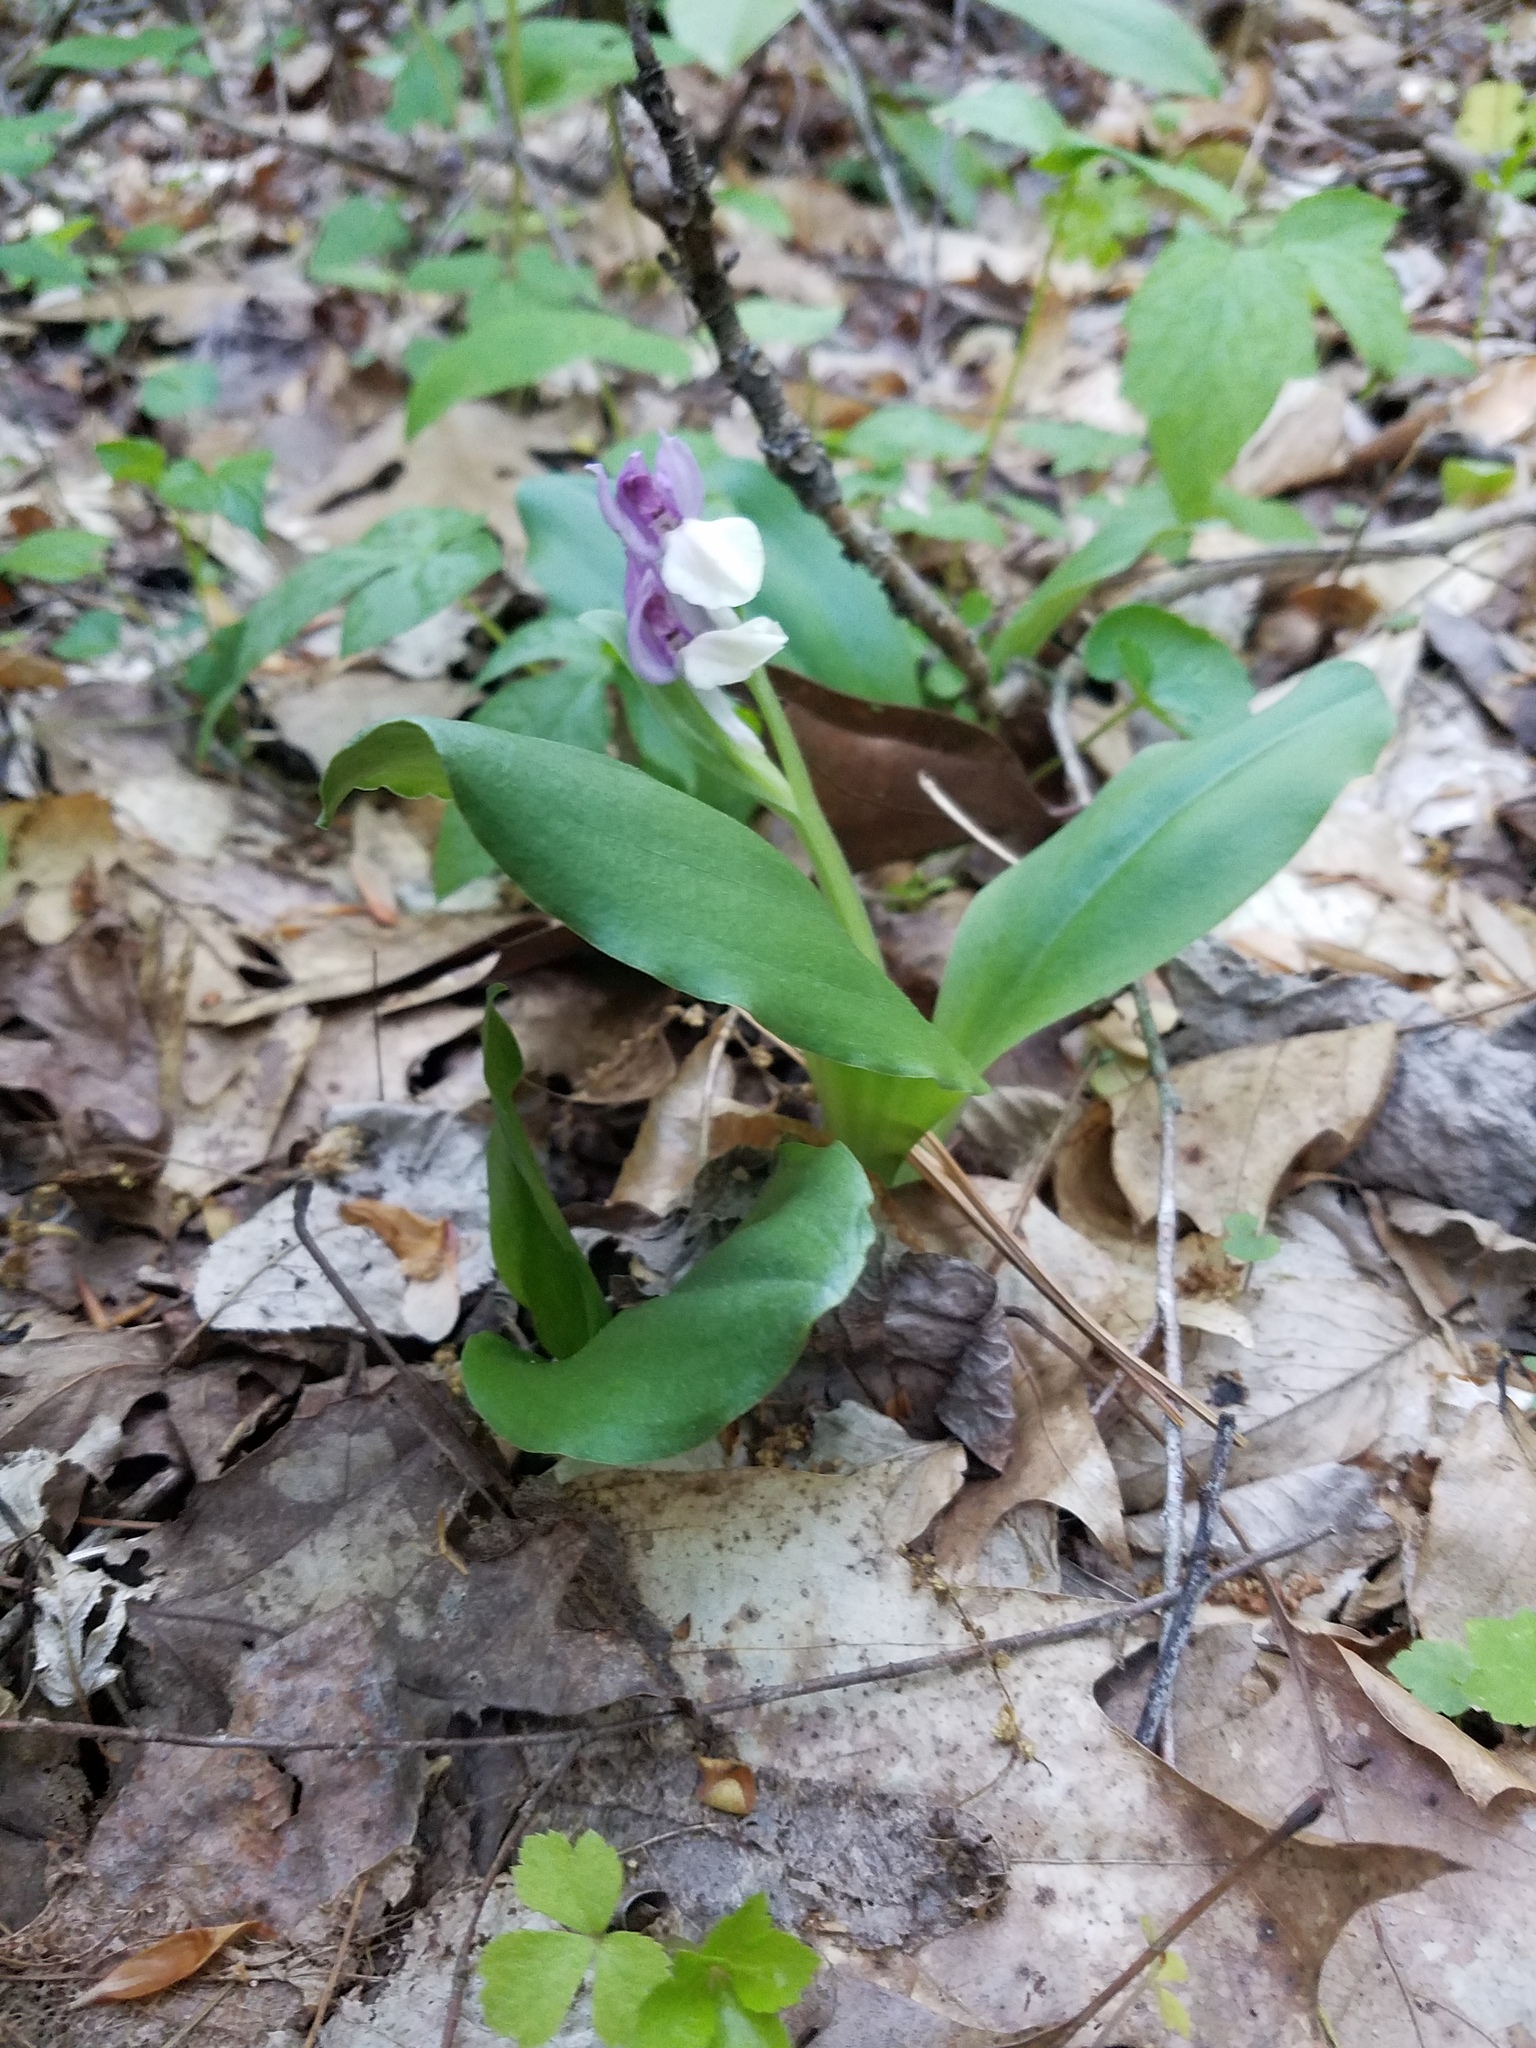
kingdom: Plantae
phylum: Tracheophyta
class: Liliopsida
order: Asparagales
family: Orchidaceae
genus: Galearis
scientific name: Galearis spectabilis
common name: Purple-hooded orchis
